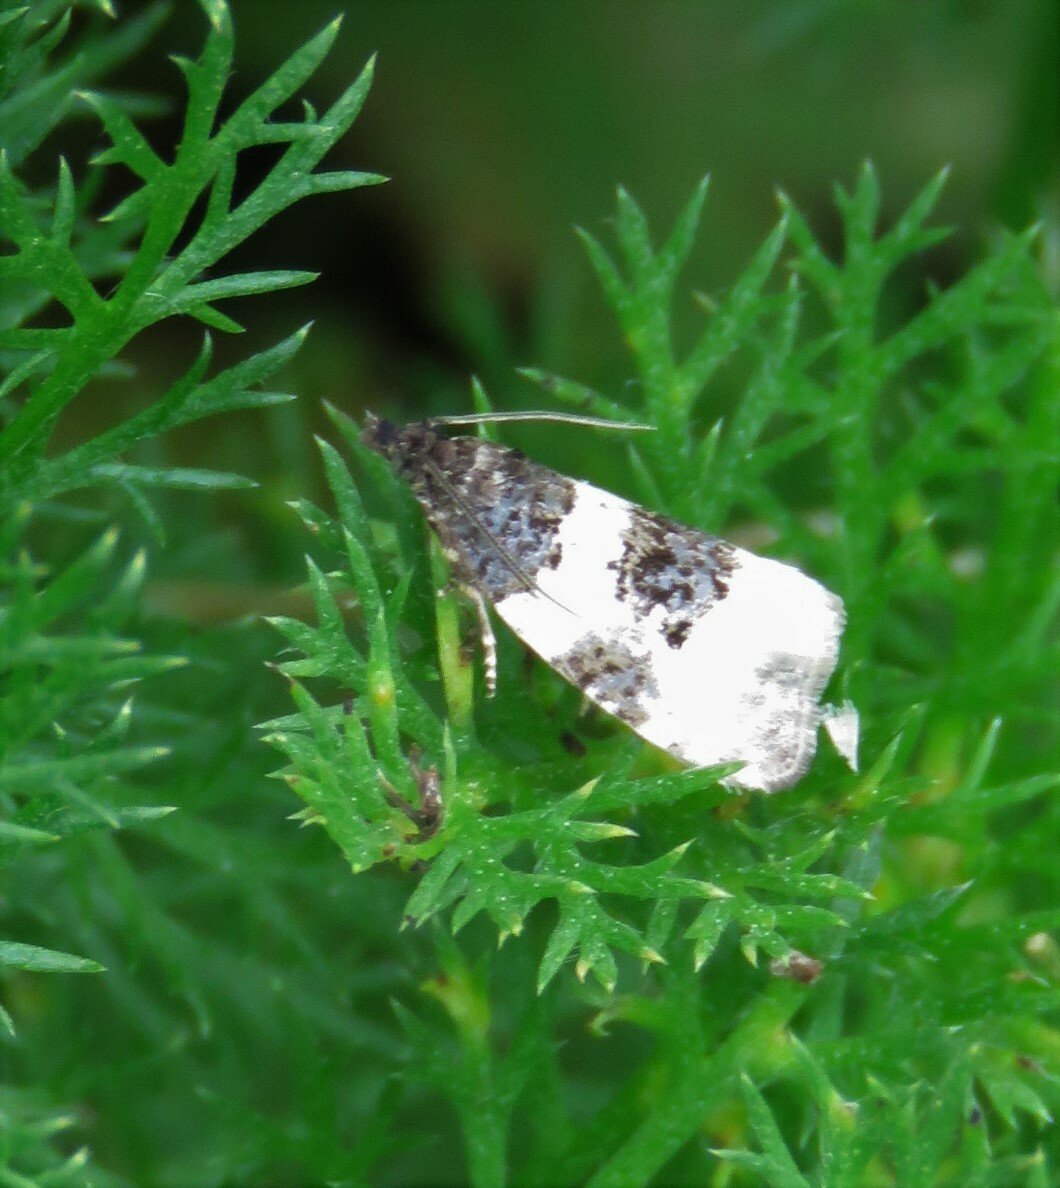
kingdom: Animalia
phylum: Arthropoda
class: Insecta
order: Lepidoptera
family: Tortricidae
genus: Olethreutes
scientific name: Olethreutes bipartitana
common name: Divided olethreutes moth
